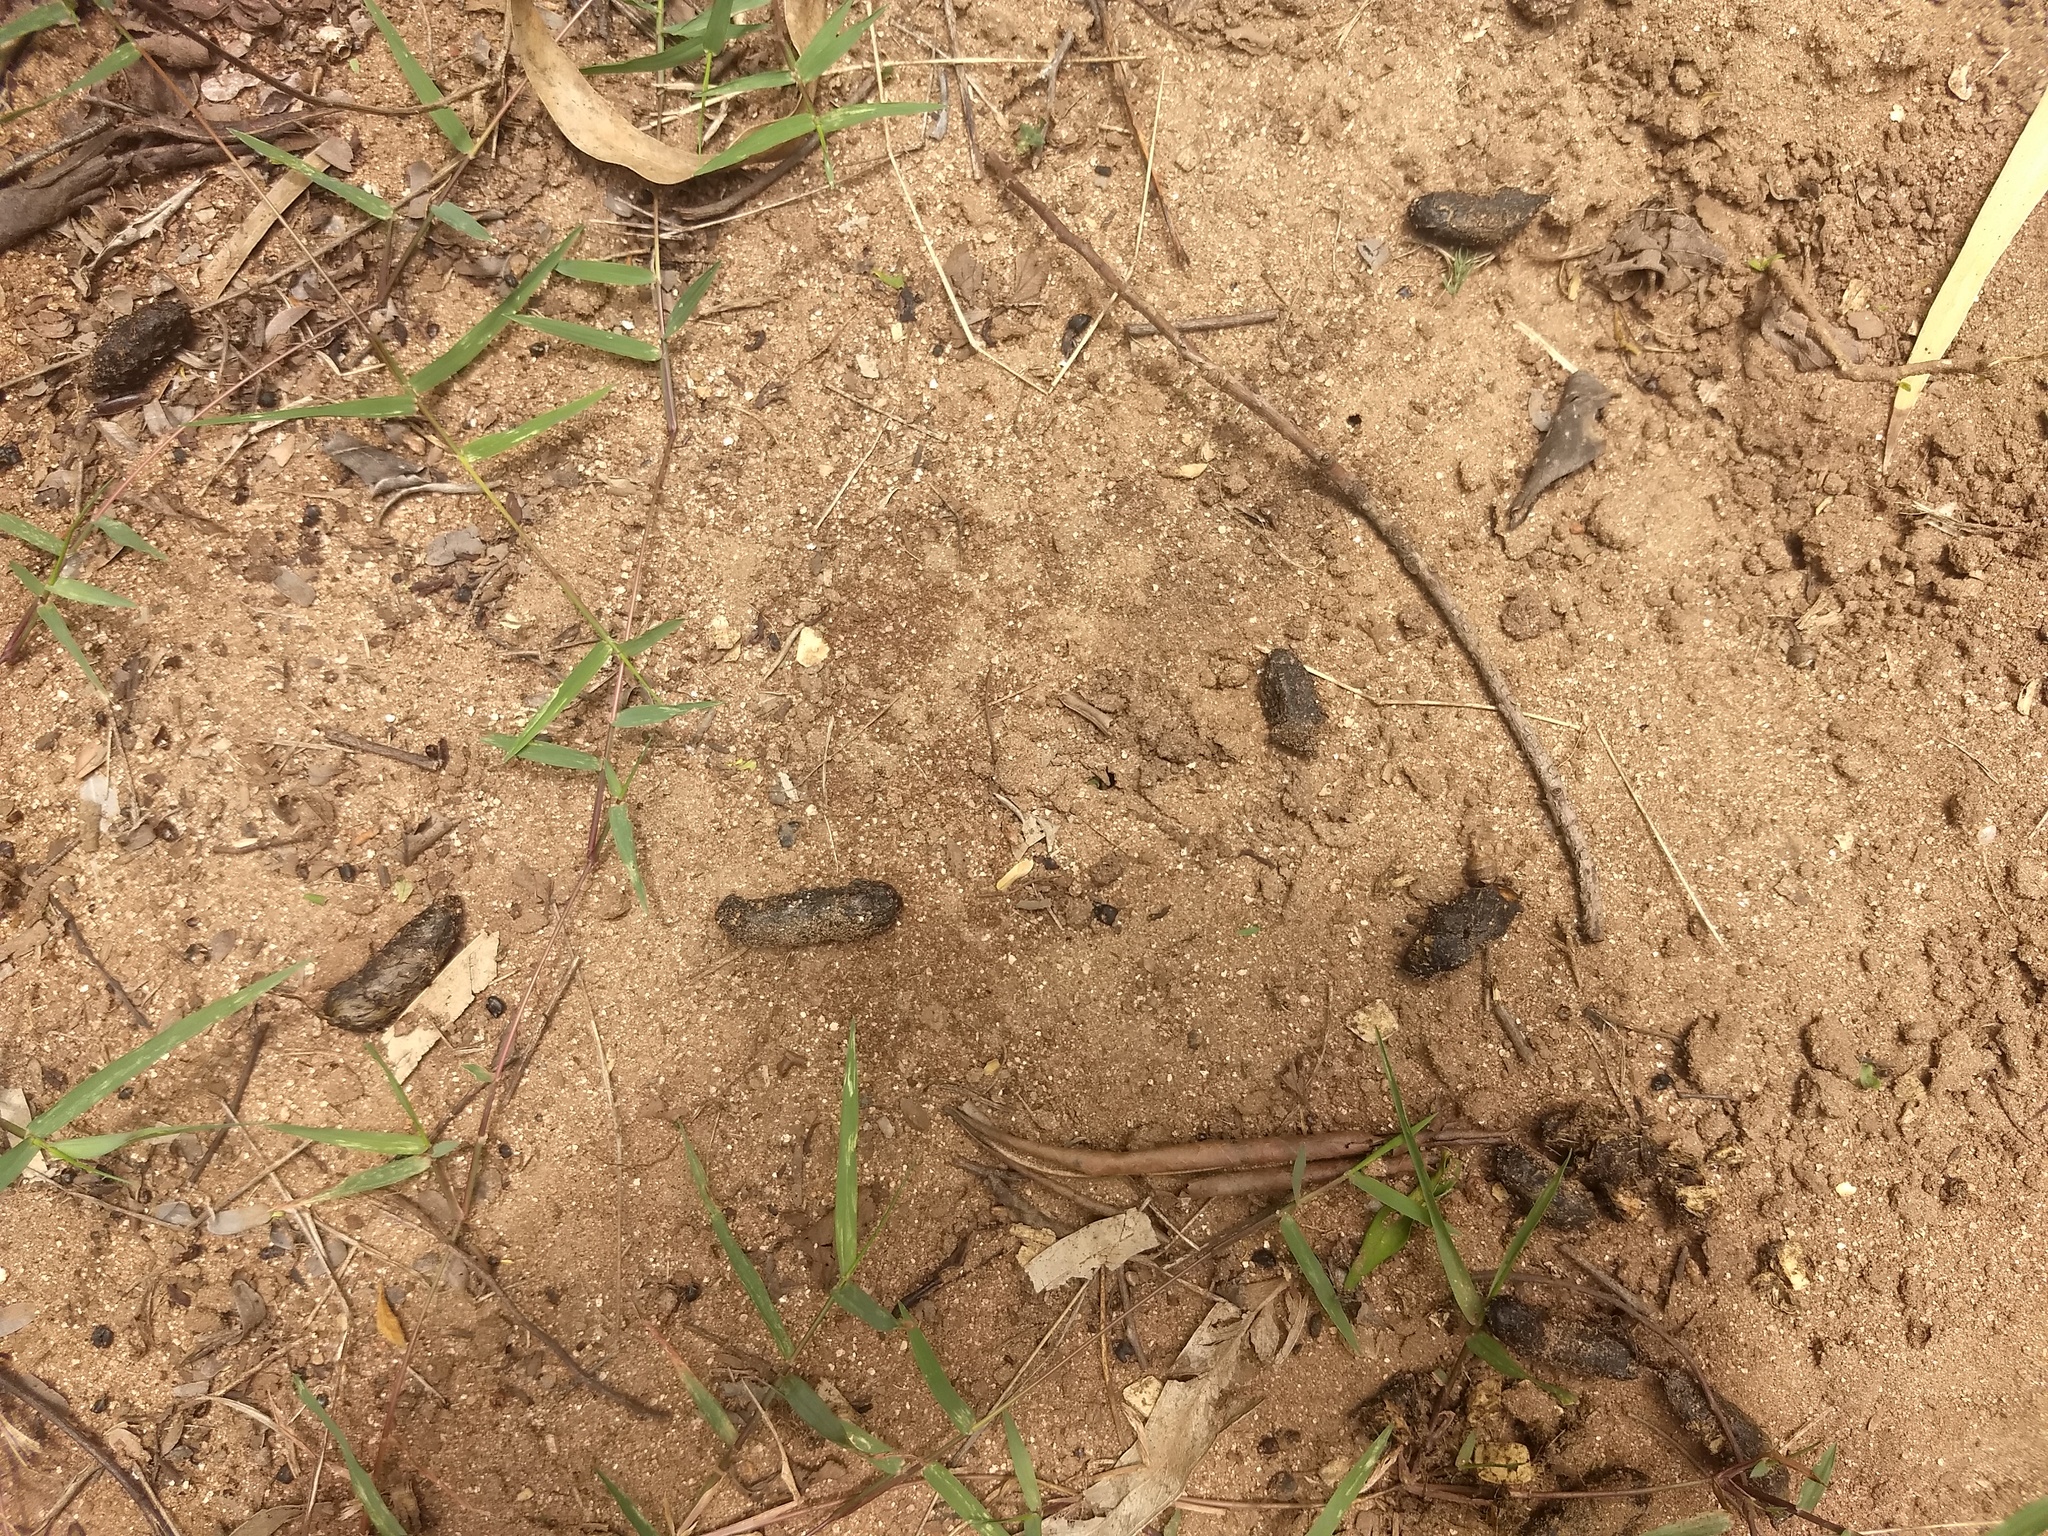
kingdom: Animalia
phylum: Chordata
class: Mammalia
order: Rodentia
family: Hystricidae
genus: Hystrix
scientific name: Hystrix indica
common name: Indian crested porcupine
